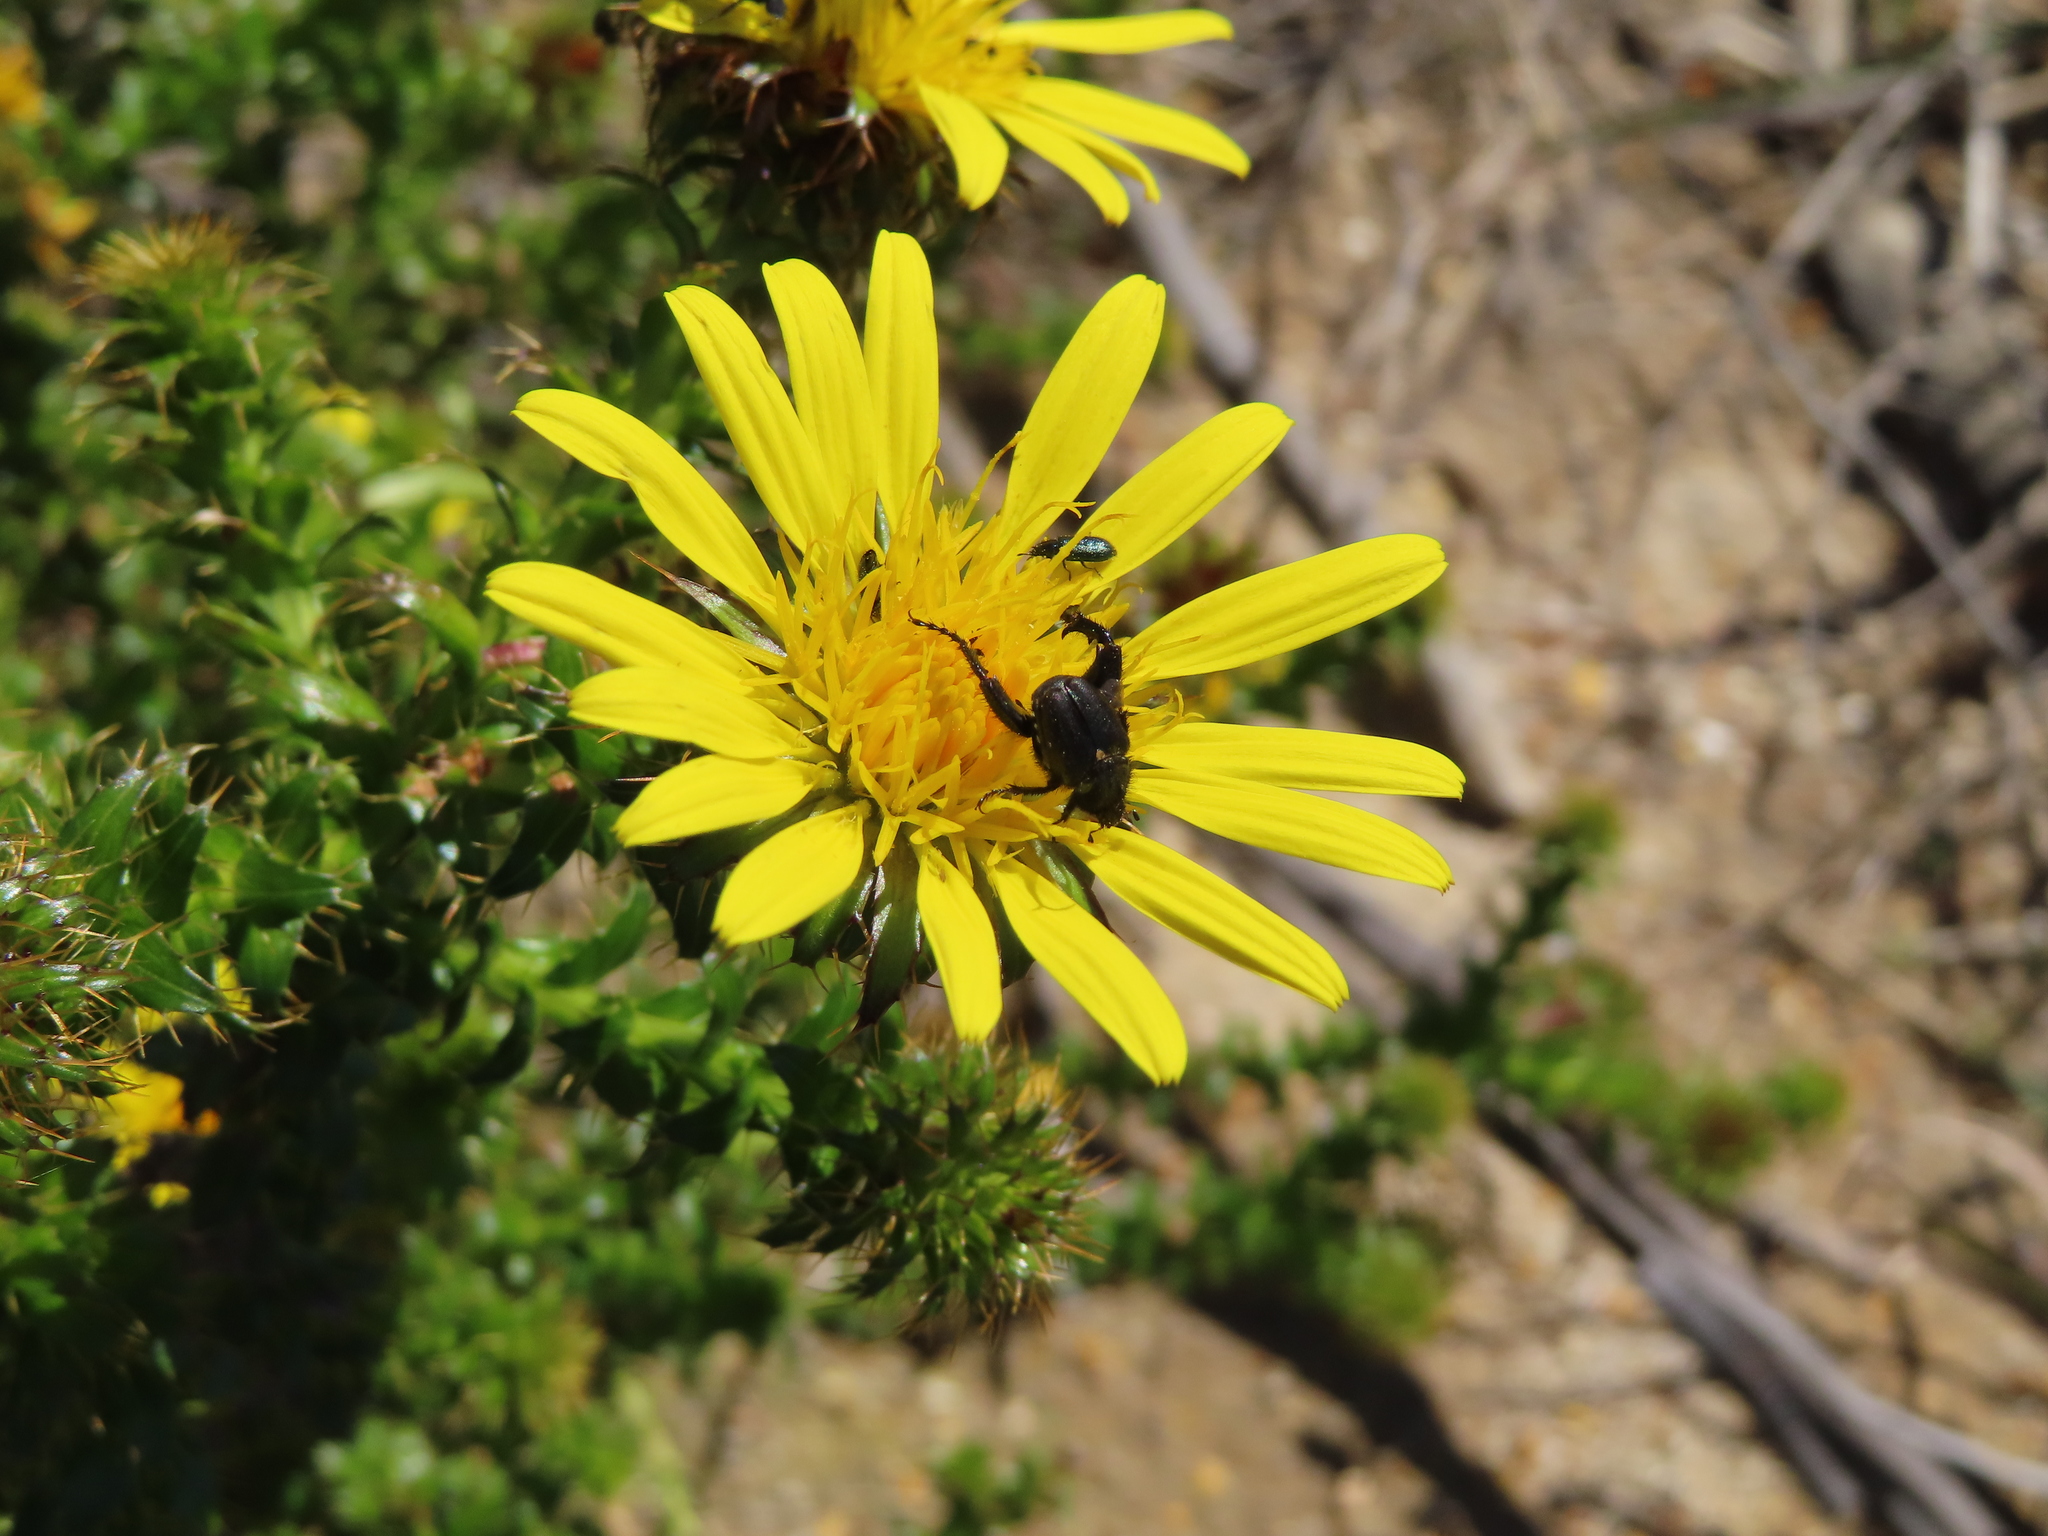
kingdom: Plantae
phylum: Tracheophyta
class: Magnoliopsida
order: Asterales
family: Asteraceae
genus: Cullumia
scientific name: Cullumia setosa
